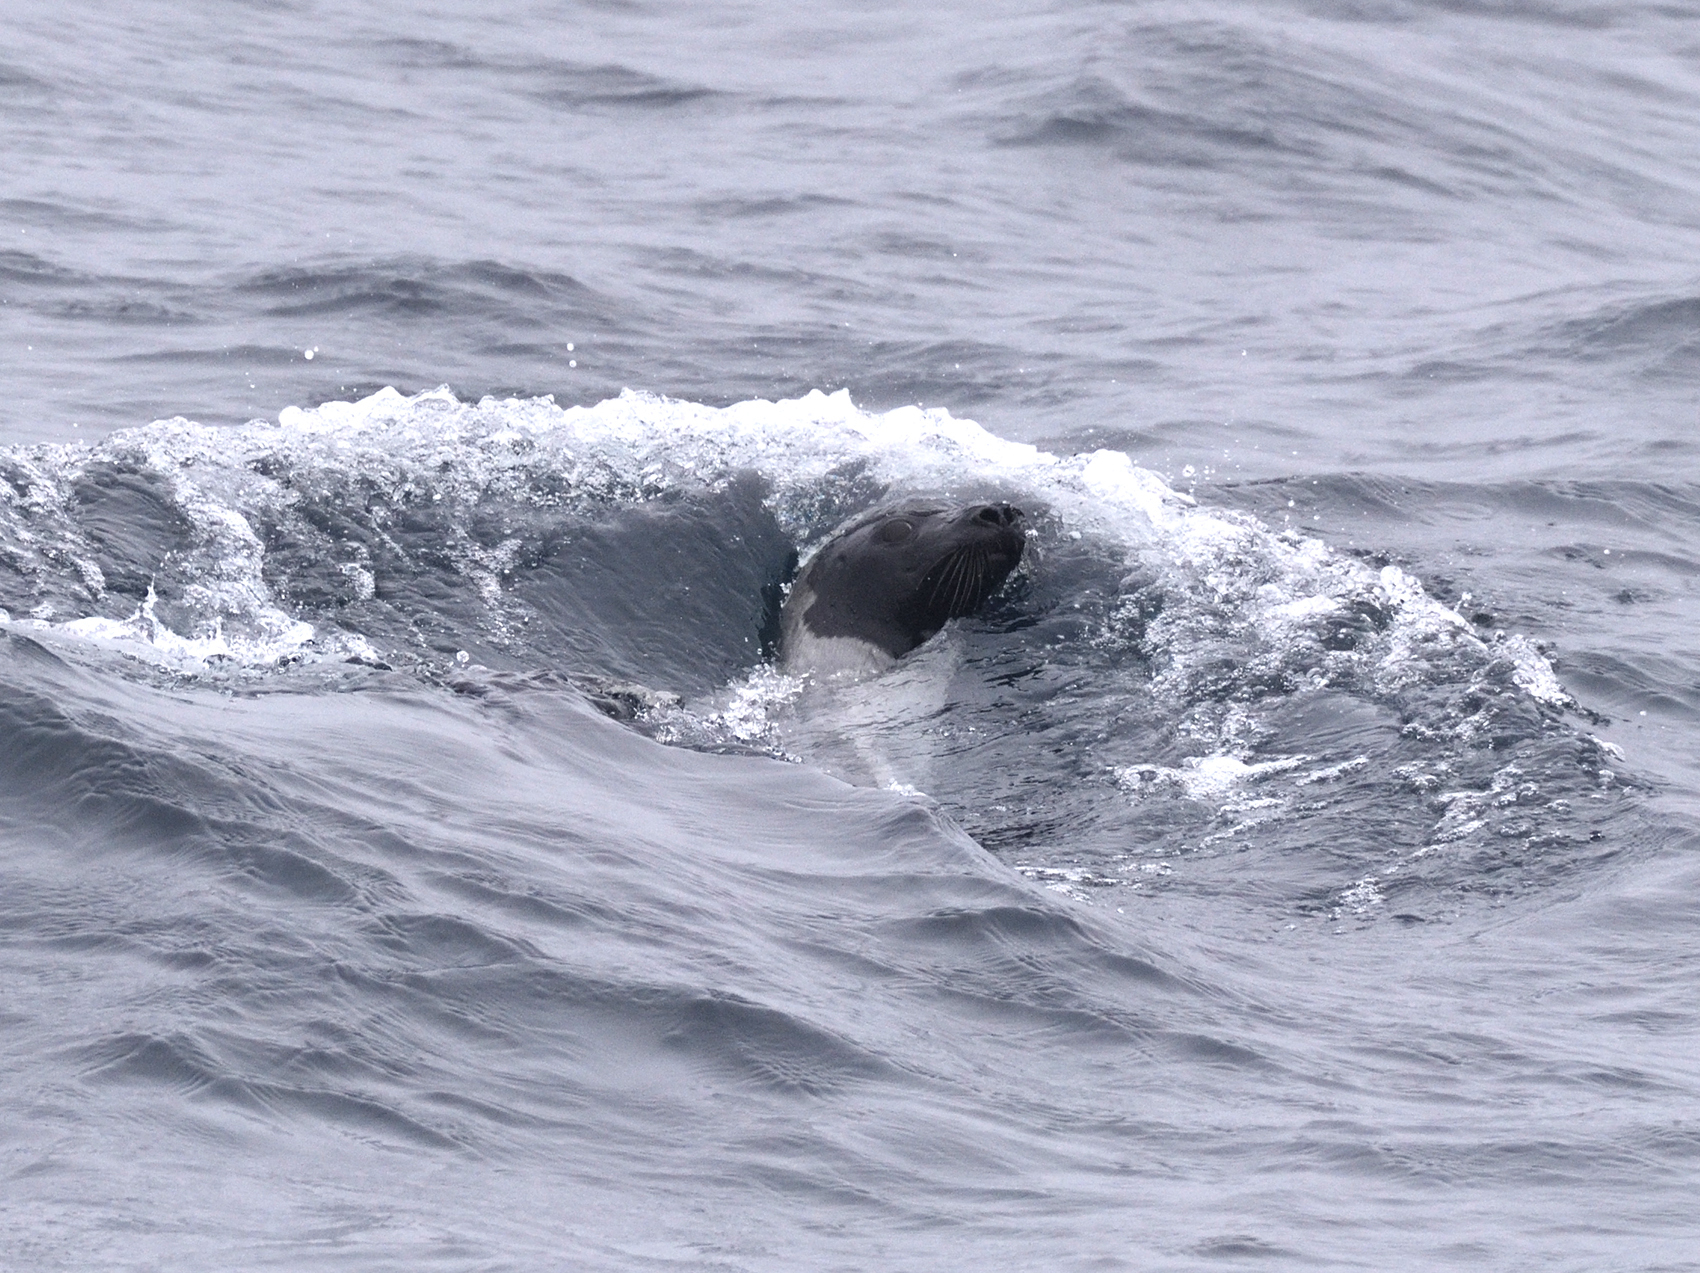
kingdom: Animalia
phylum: Chordata
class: Mammalia
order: Carnivora
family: Phocidae
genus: Pagophilus
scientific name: Pagophilus groenlandicus
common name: Harp seal
